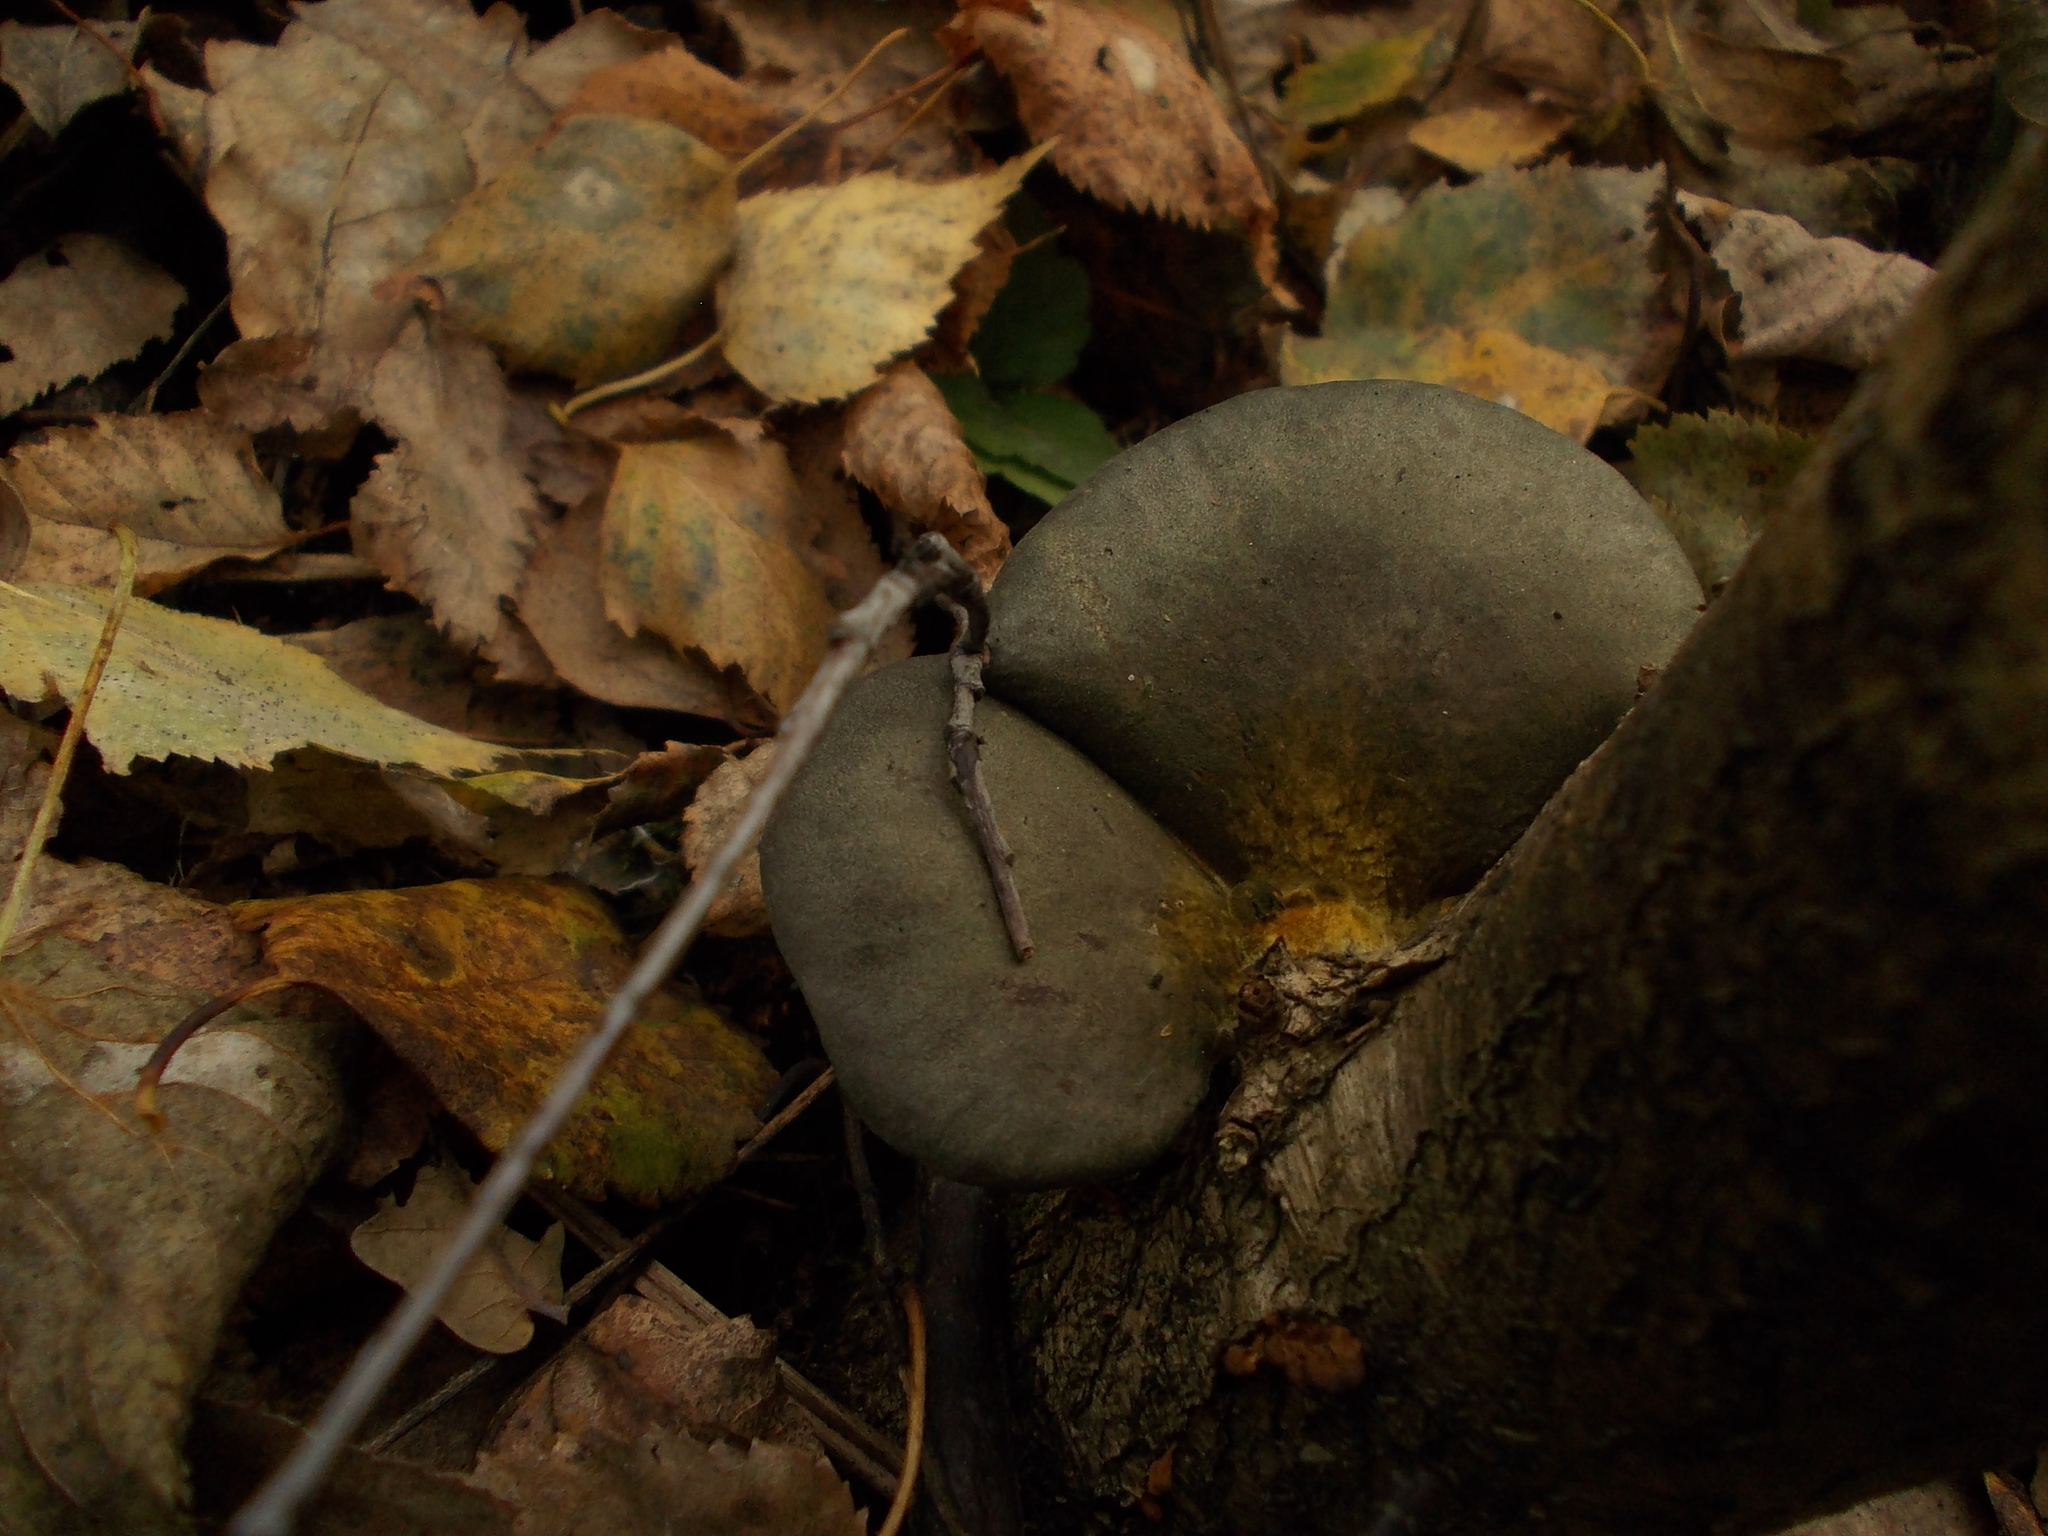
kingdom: Fungi
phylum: Basidiomycota
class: Agaricomycetes
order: Agaricales
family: Sarcomyxaceae
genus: Sarcomyxa
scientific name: Sarcomyxa serotina
